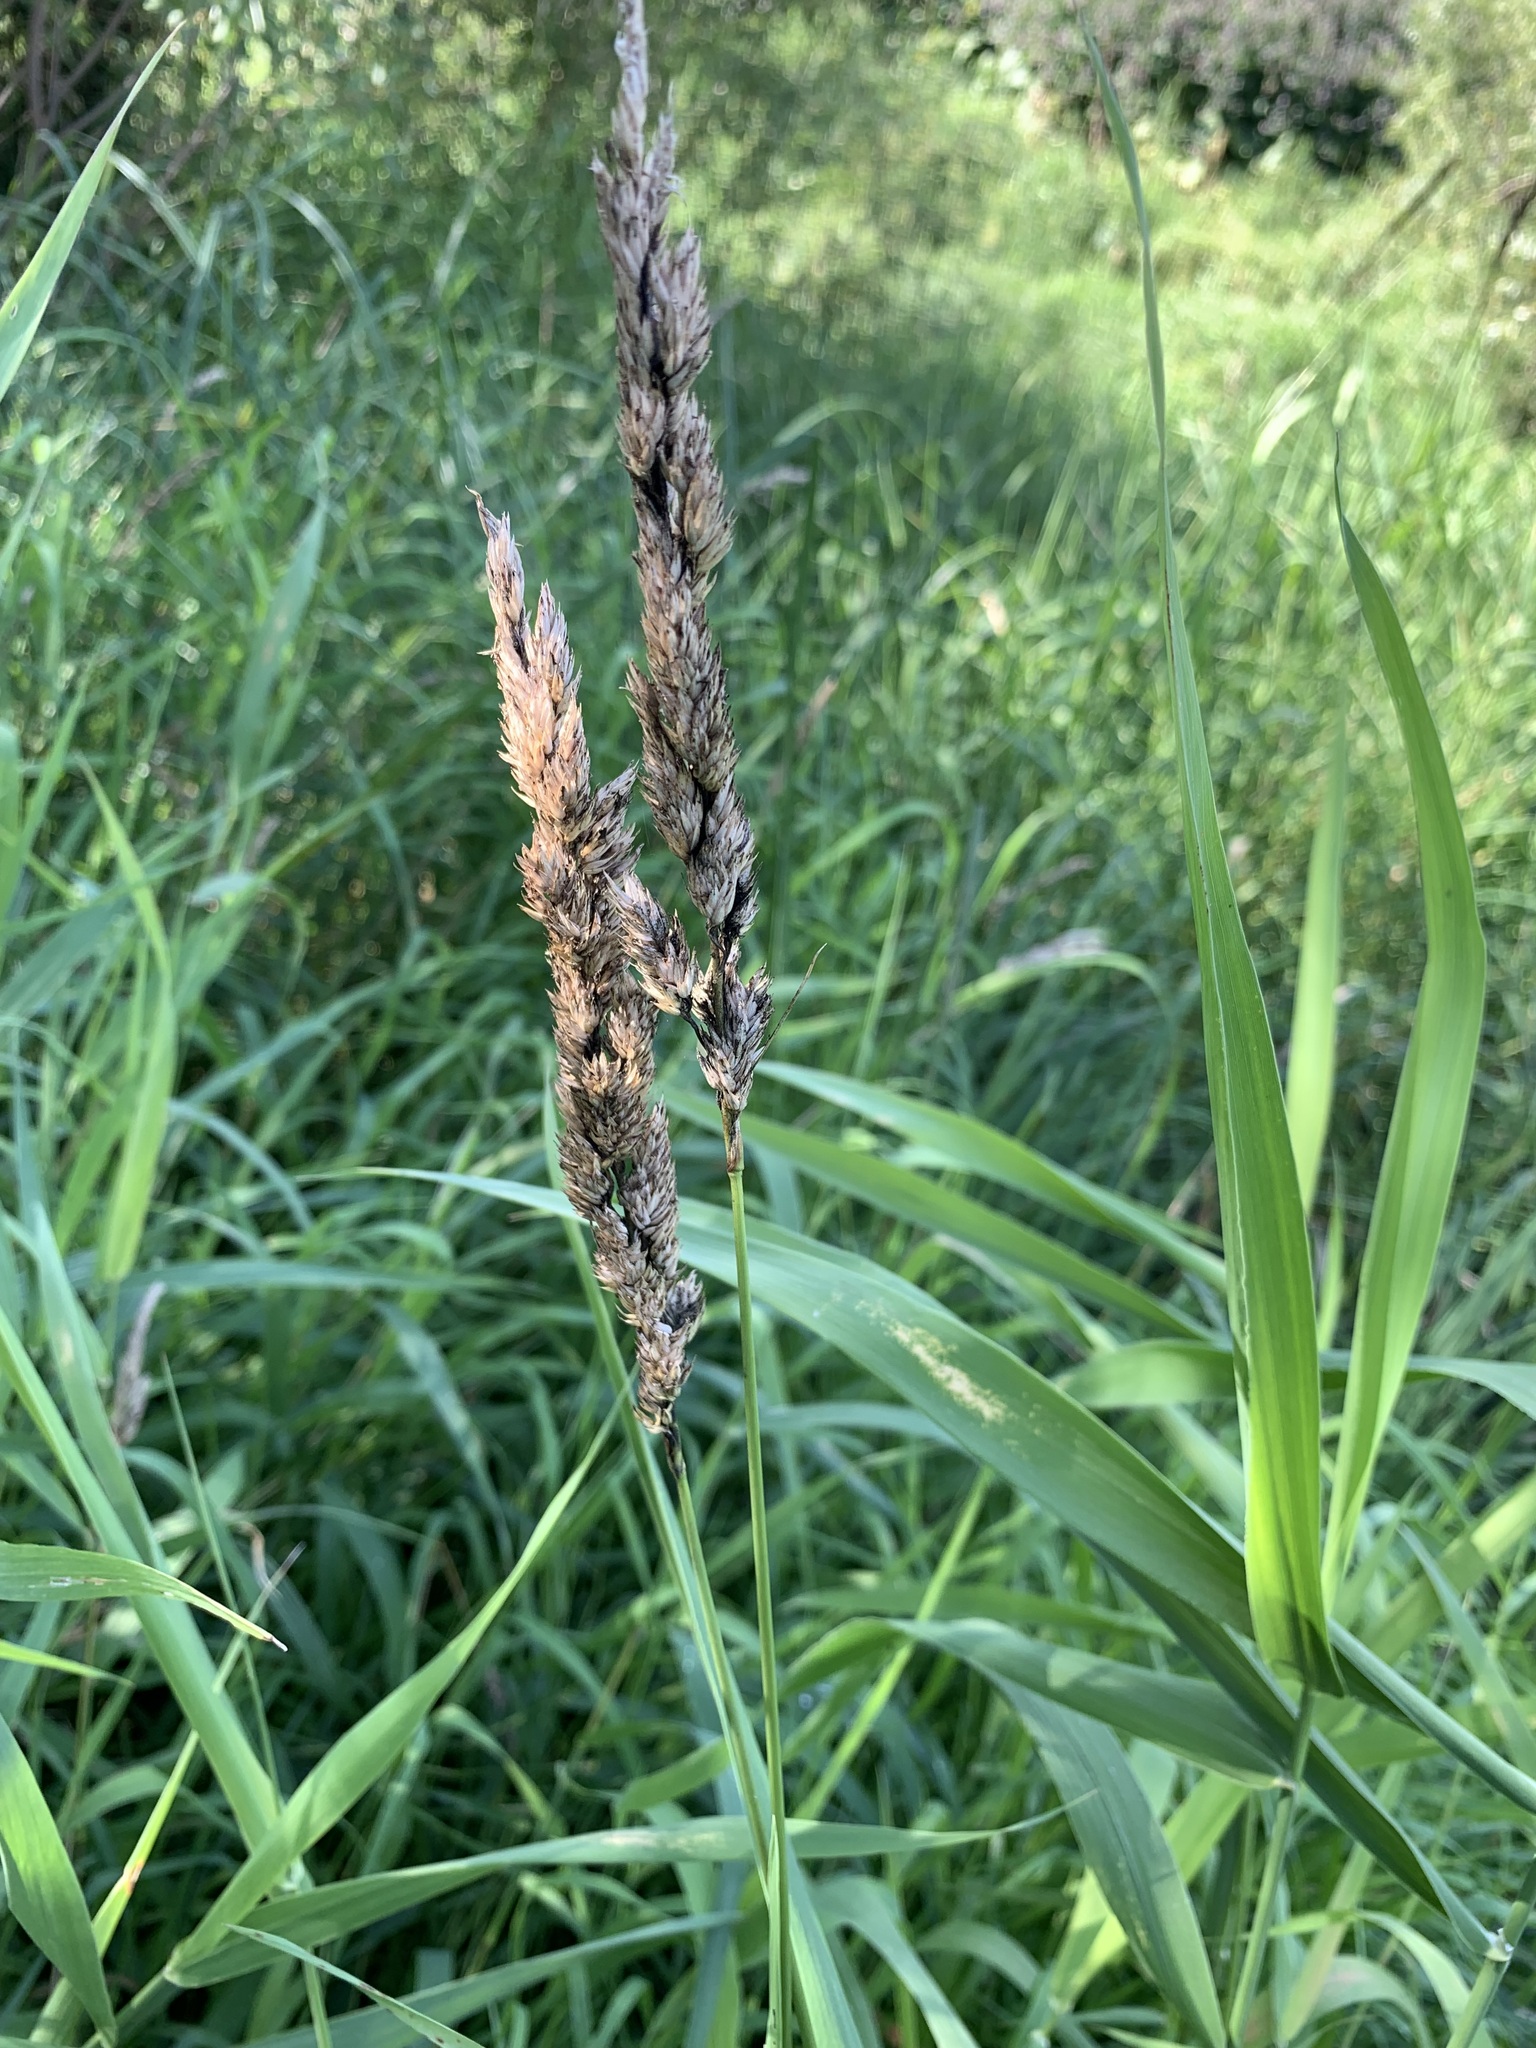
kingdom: Plantae
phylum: Tracheophyta
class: Liliopsida
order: Poales
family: Poaceae
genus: Phalaris
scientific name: Phalaris arundinacea
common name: Reed canary-grass
